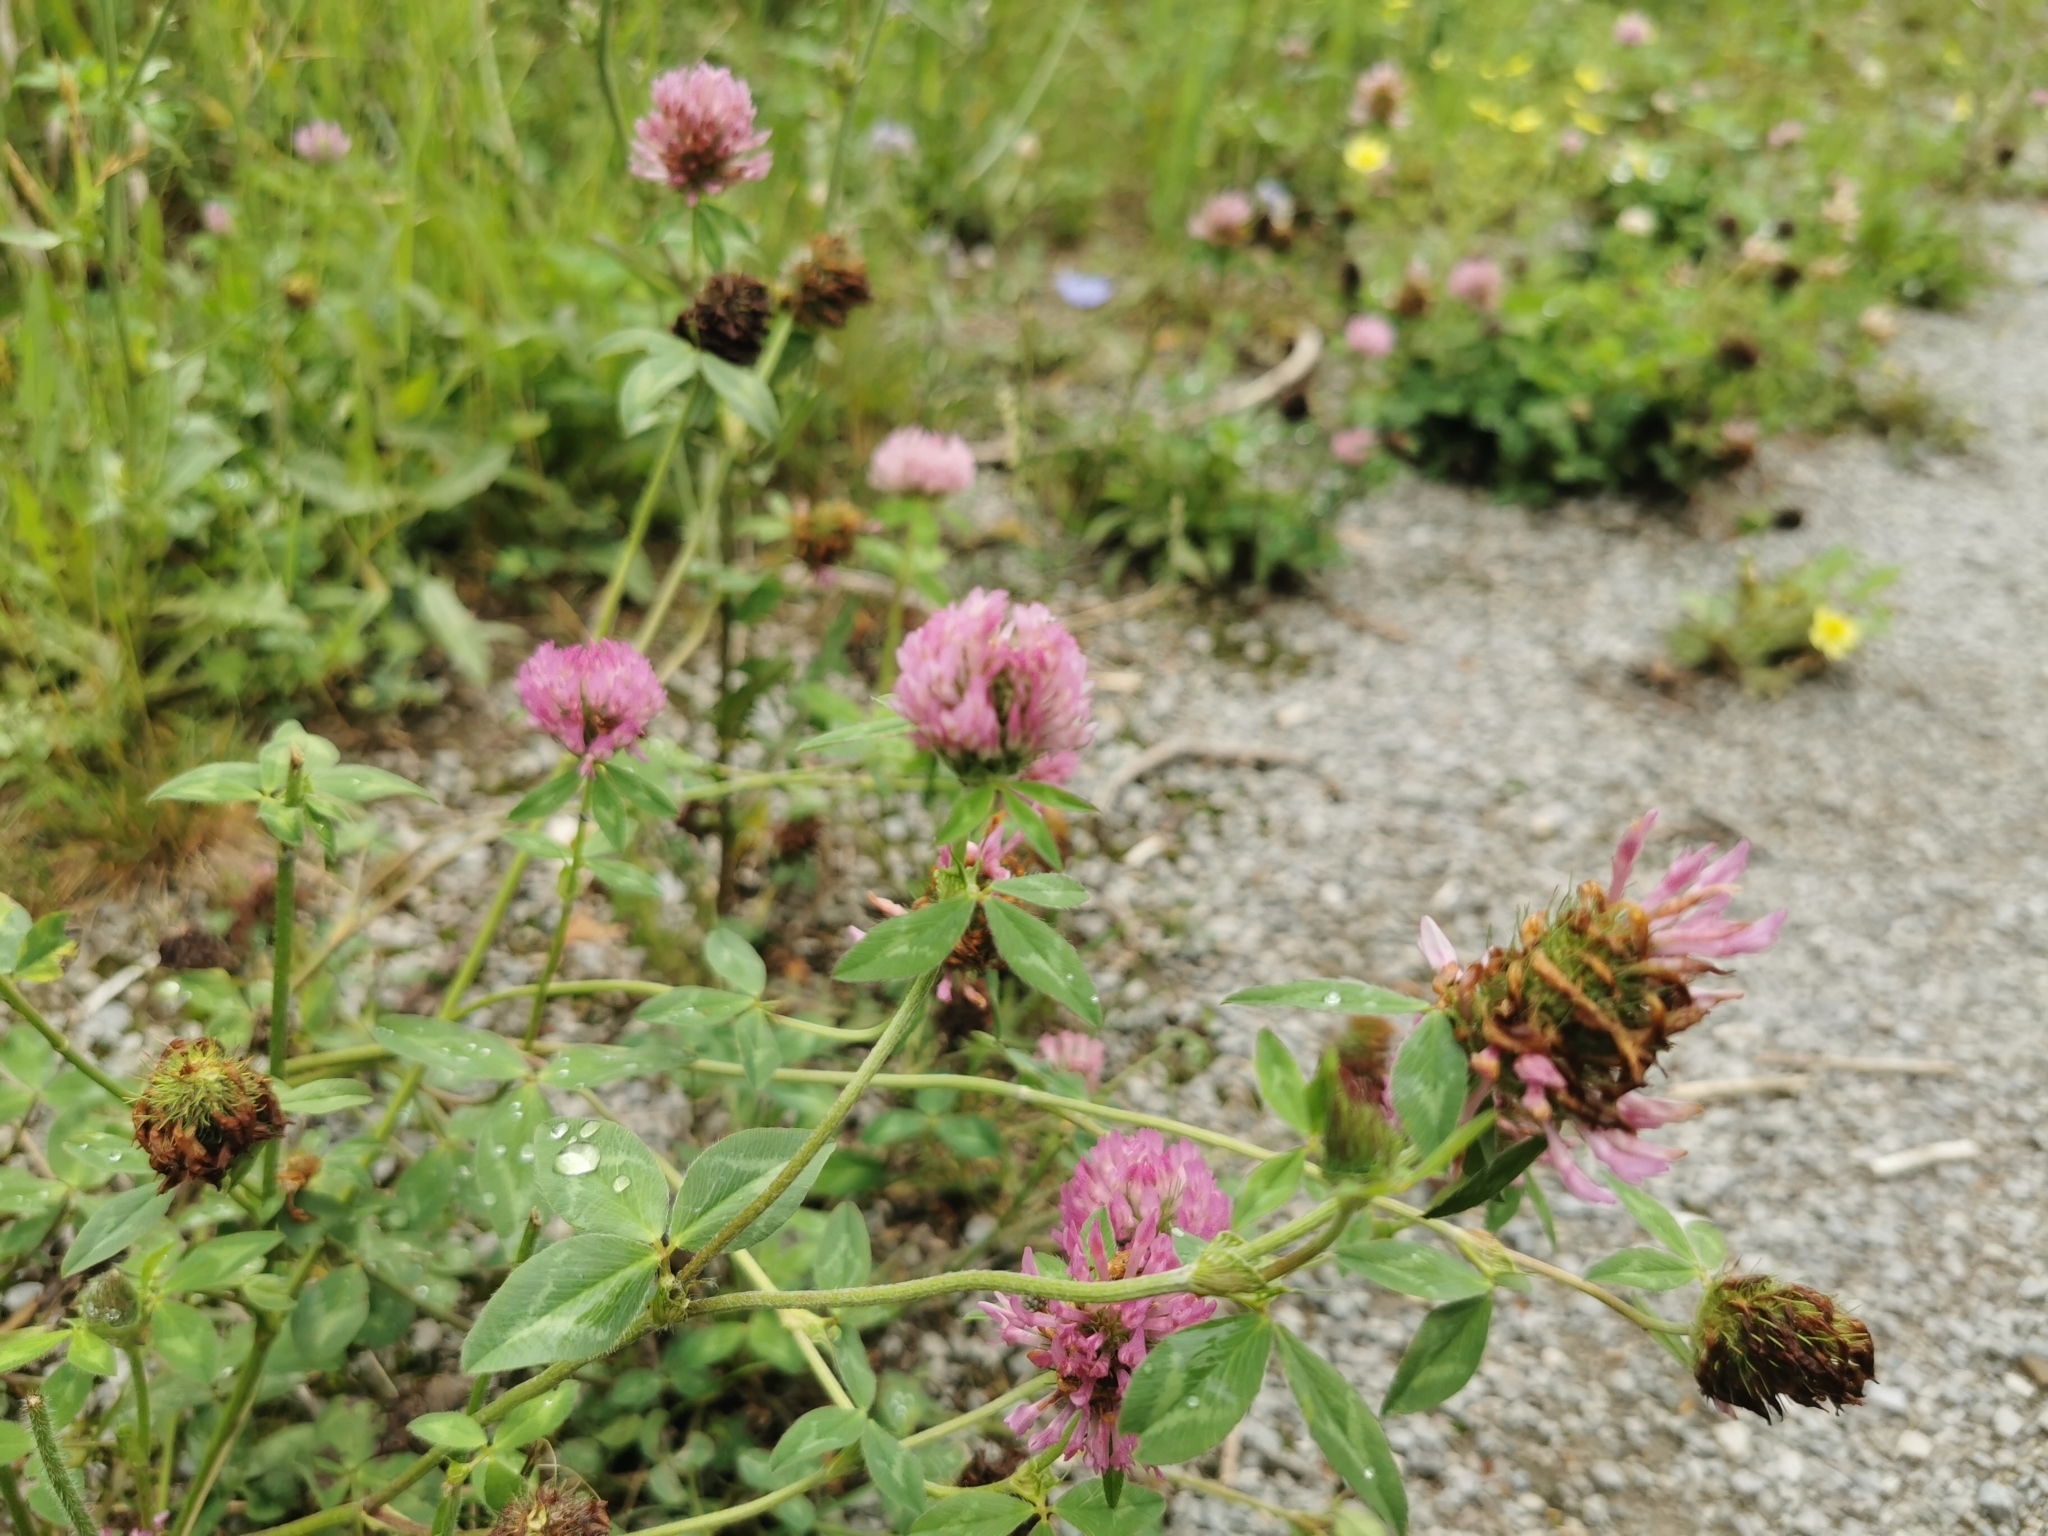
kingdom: Plantae
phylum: Tracheophyta
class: Magnoliopsida
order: Fabales
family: Fabaceae
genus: Trifolium
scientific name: Trifolium pratense
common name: Red clover
